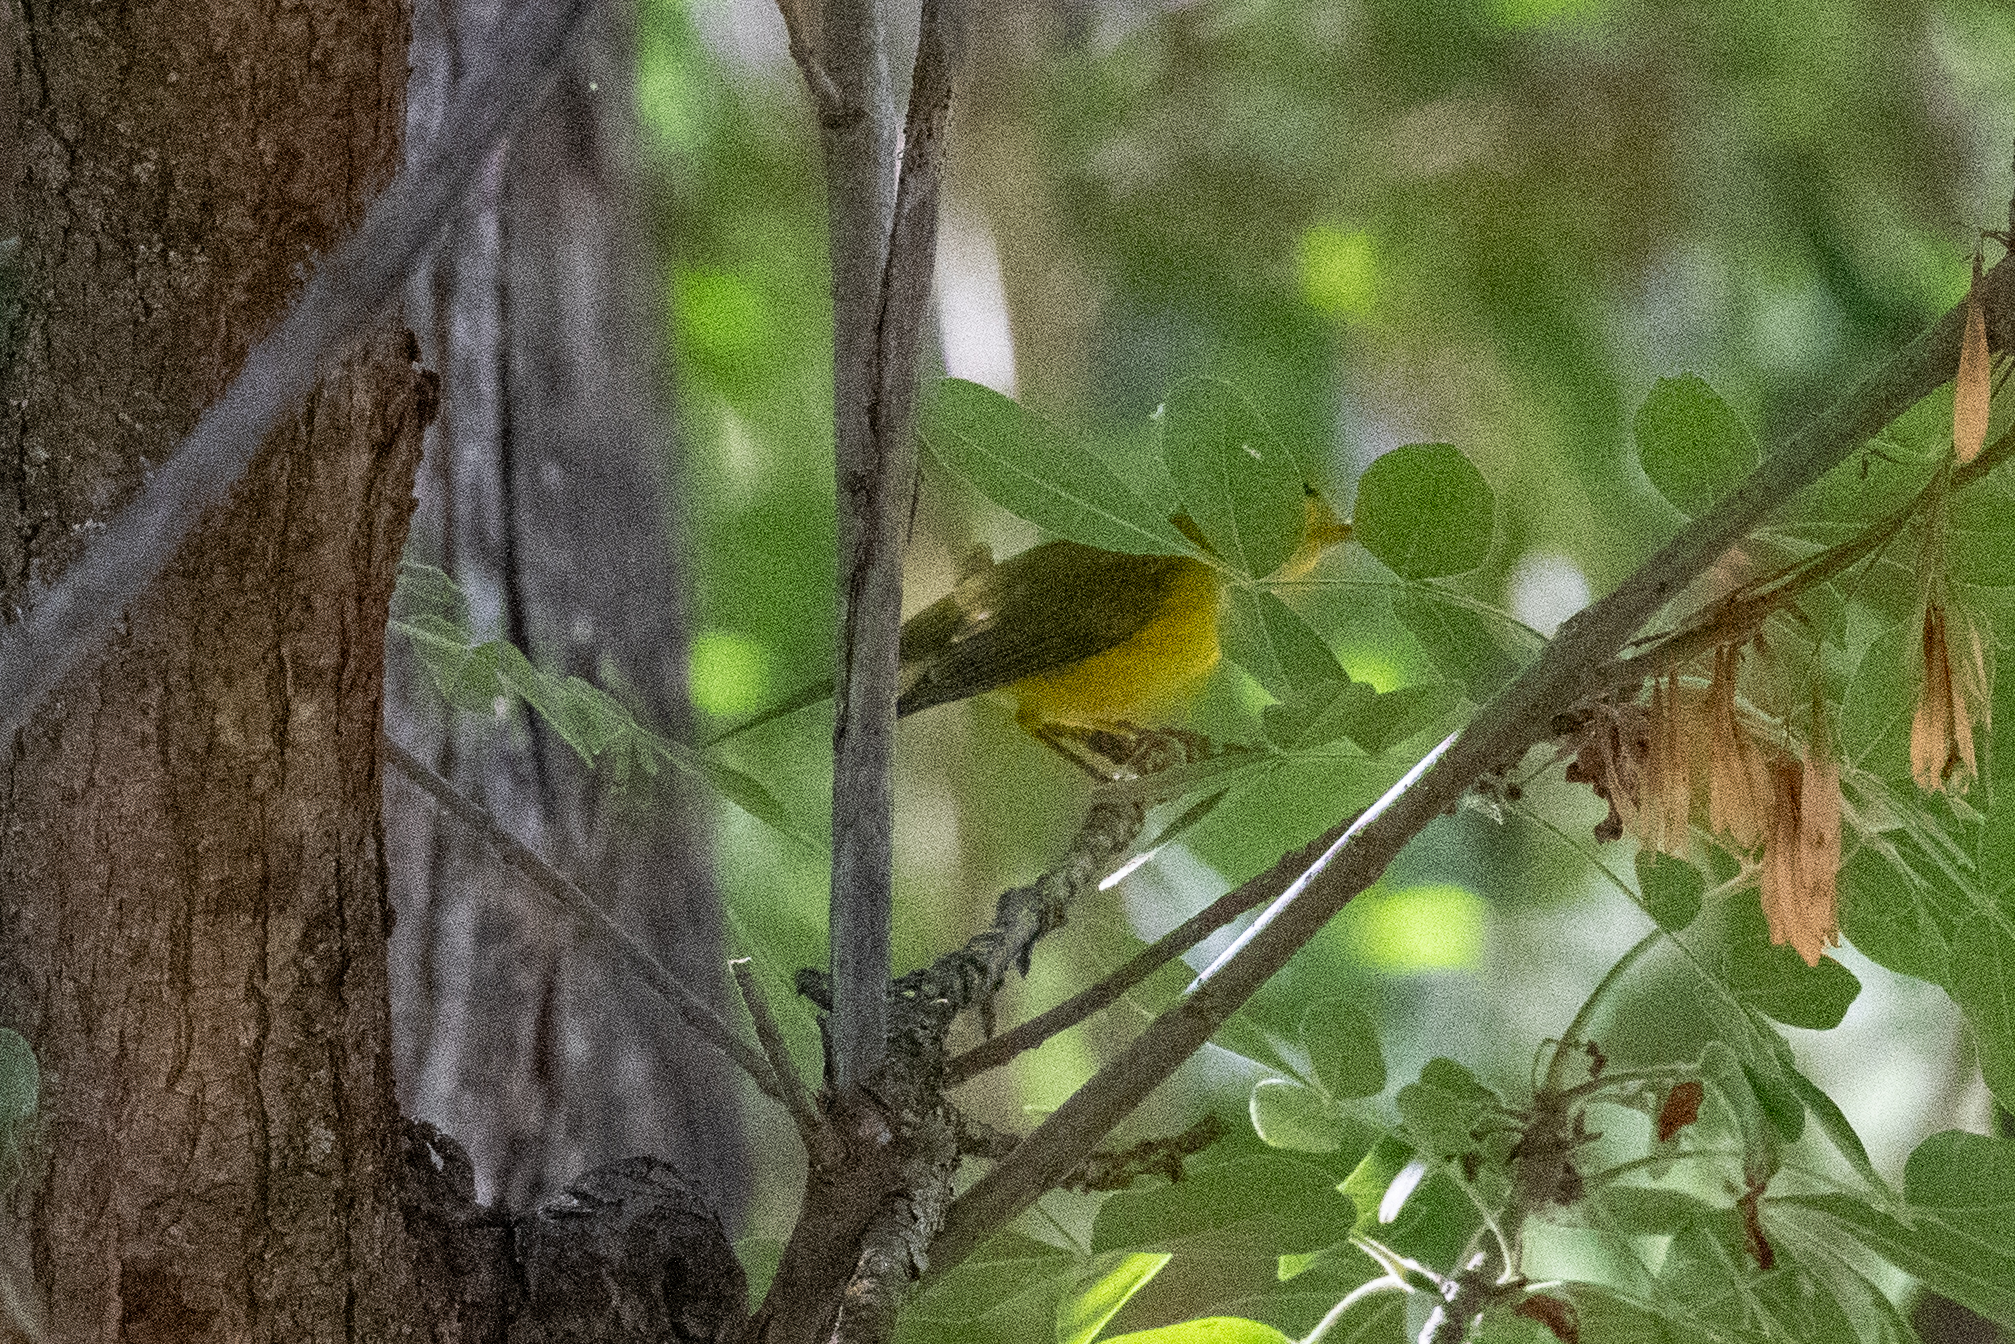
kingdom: Animalia
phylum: Chordata
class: Aves
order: Passeriformes
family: Parulidae
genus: Cardellina
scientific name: Cardellina pusilla
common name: Wilson's warbler
